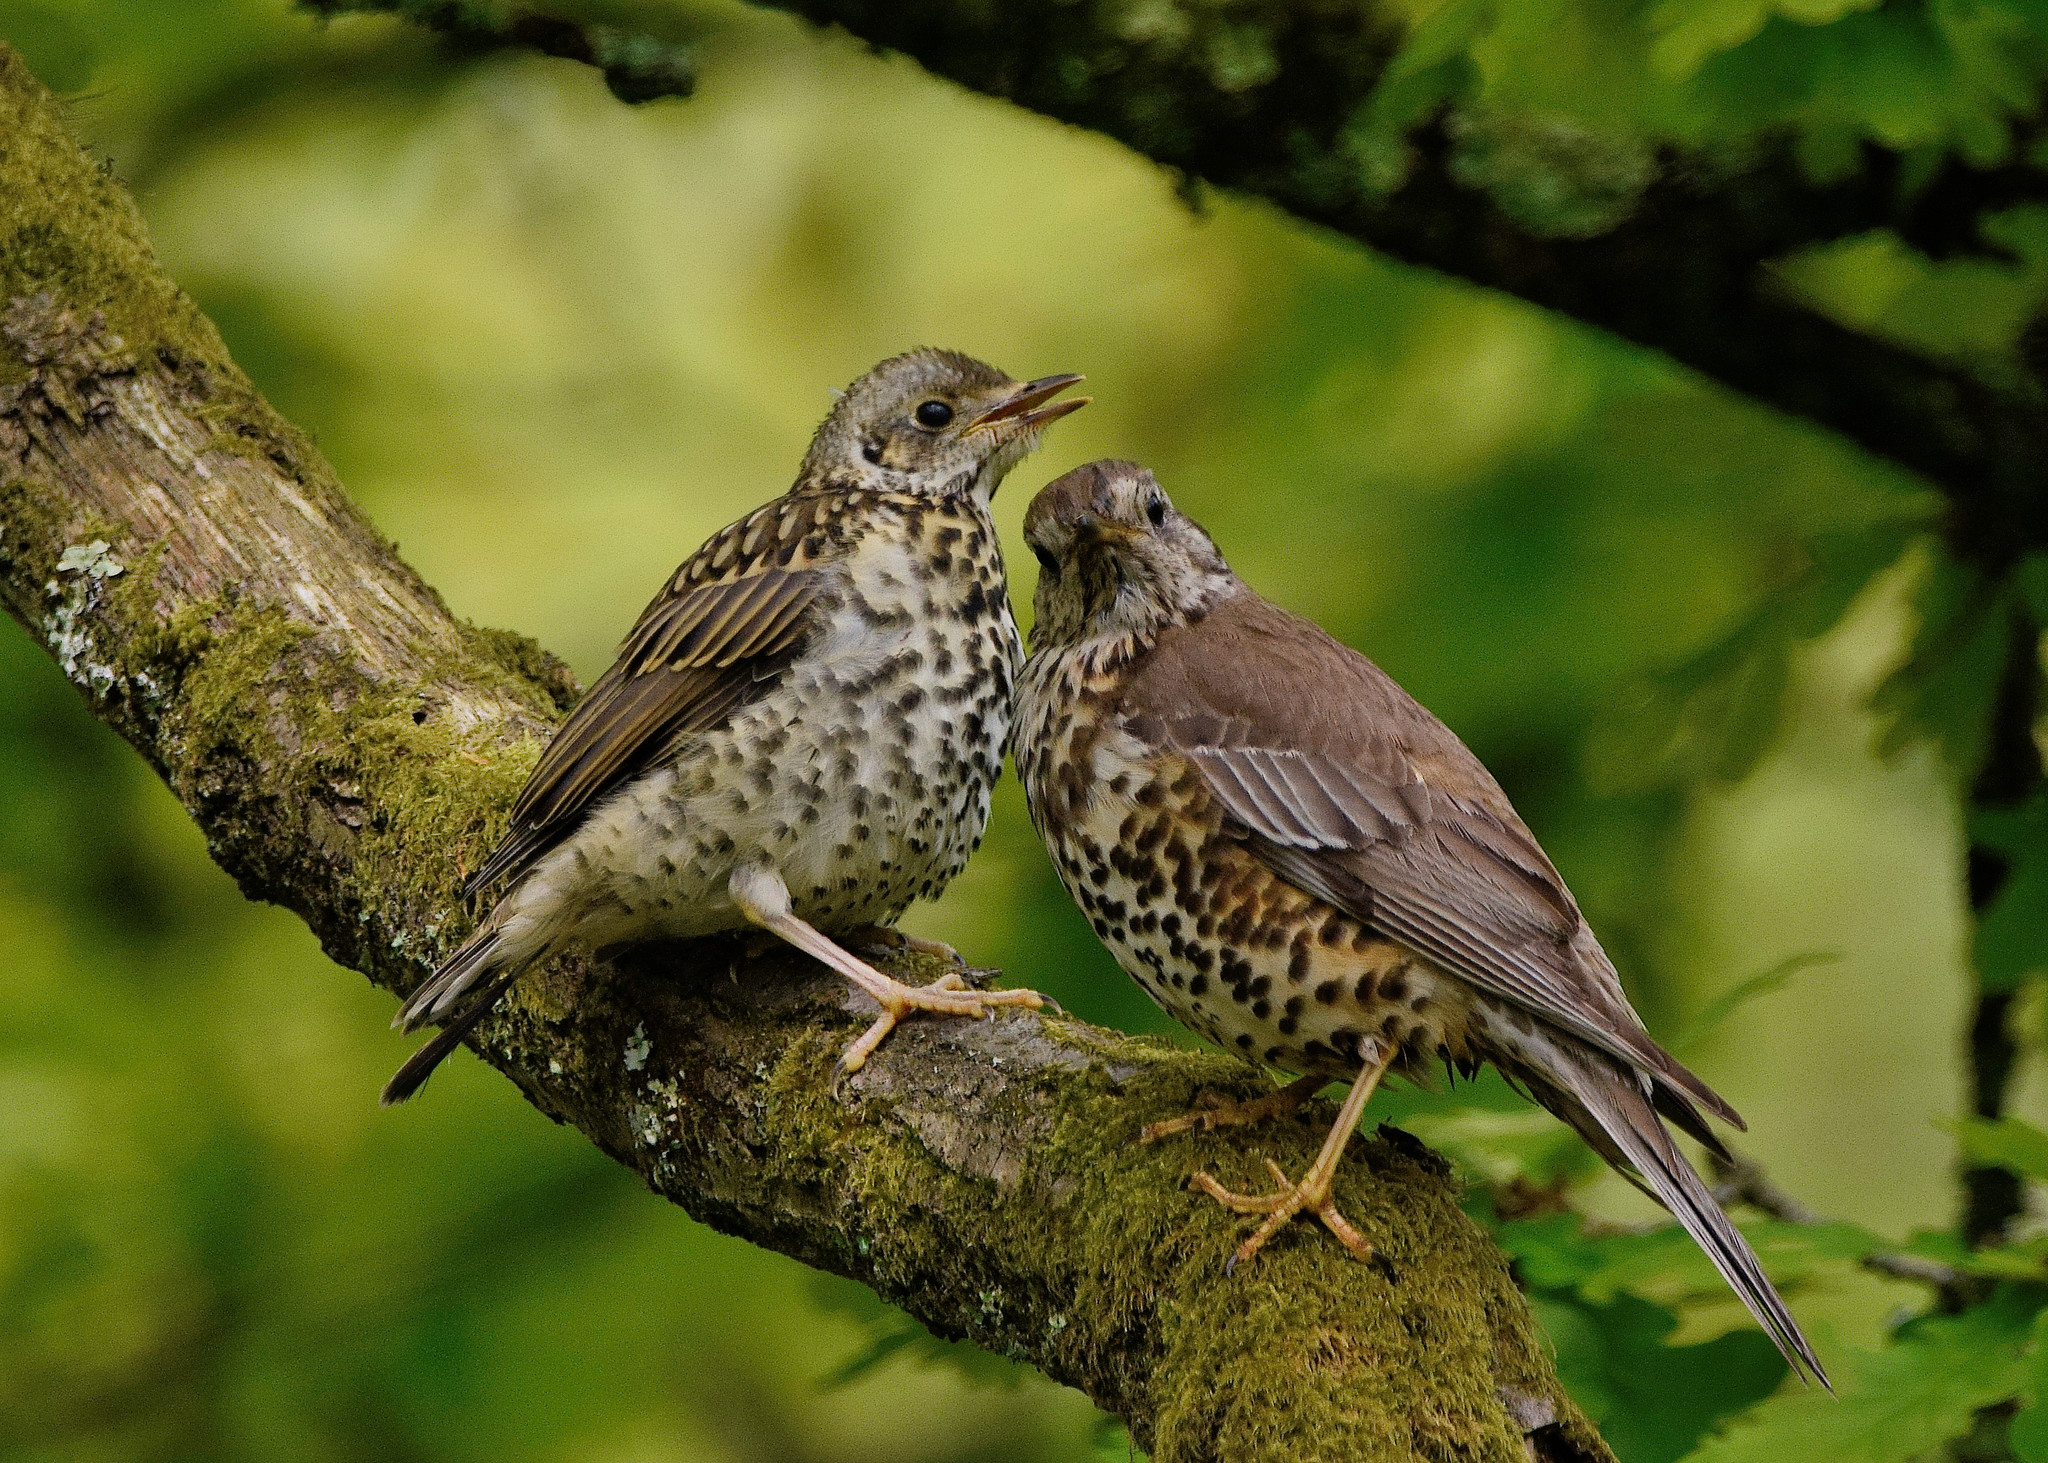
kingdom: Animalia
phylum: Chordata
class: Aves
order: Passeriformes
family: Turdidae
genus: Turdus
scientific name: Turdus viscivorus
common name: Mistle thrush
